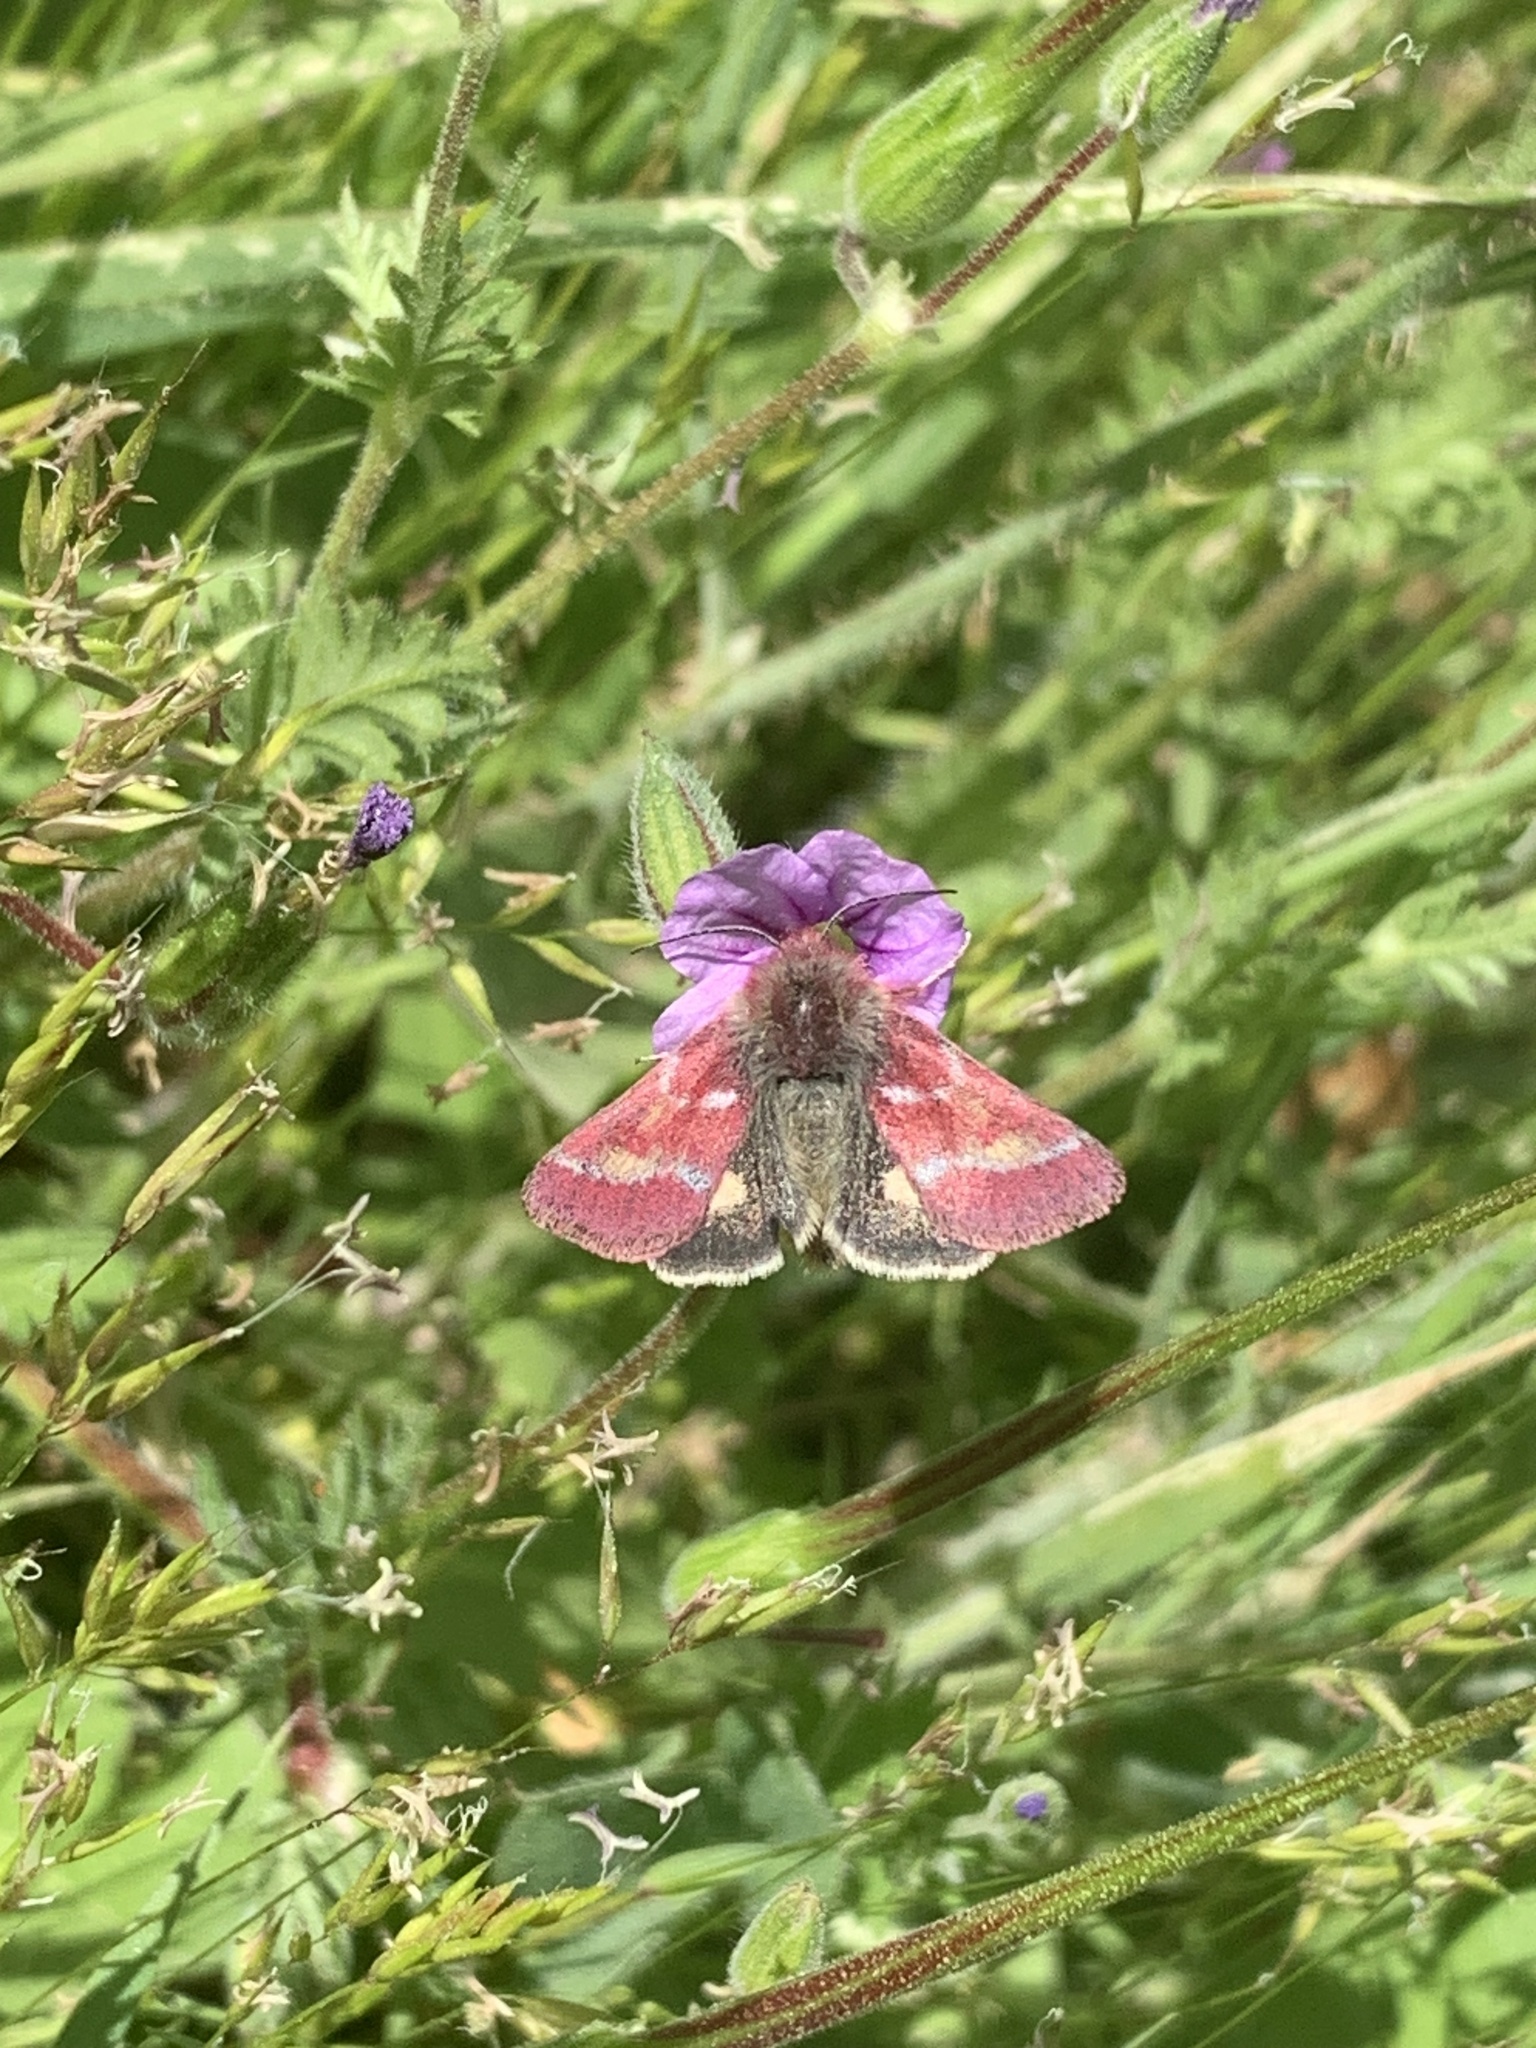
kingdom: Animalia
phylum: Arthropoda
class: Insecta
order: Lepidoptera
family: Noctuidae
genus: Schinia
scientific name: Schinia pulchripennis
